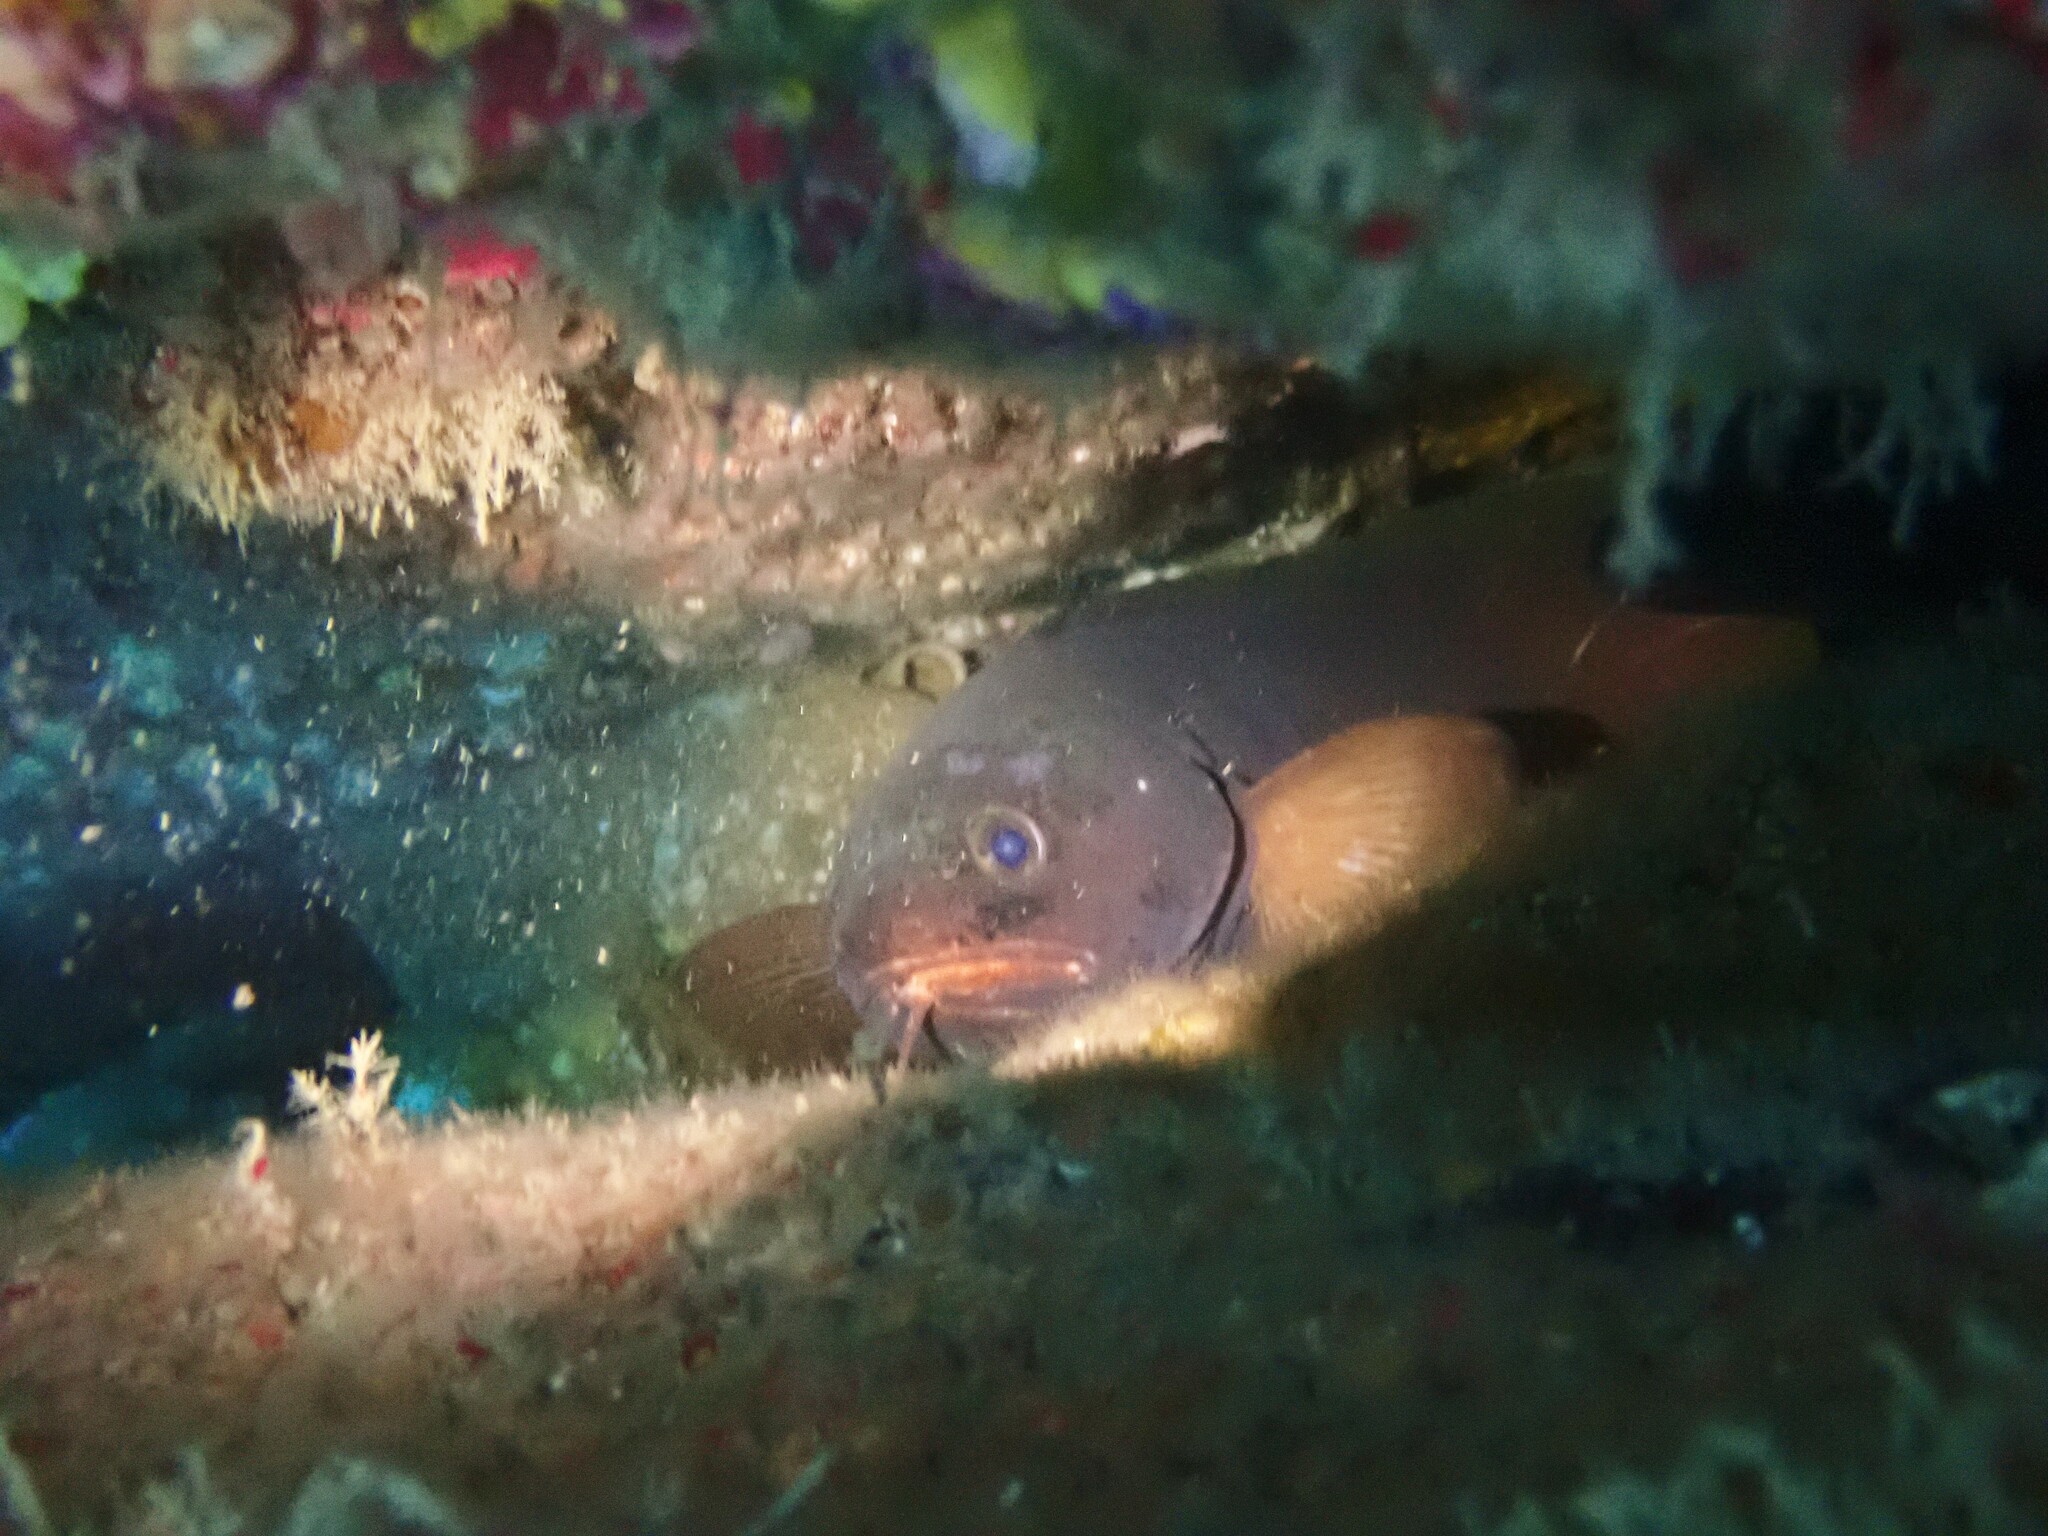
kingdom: Animalia
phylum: Chordata
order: Gadiformes
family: Moridae
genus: Lotella
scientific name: Lotella rhacina
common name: Rock cod
